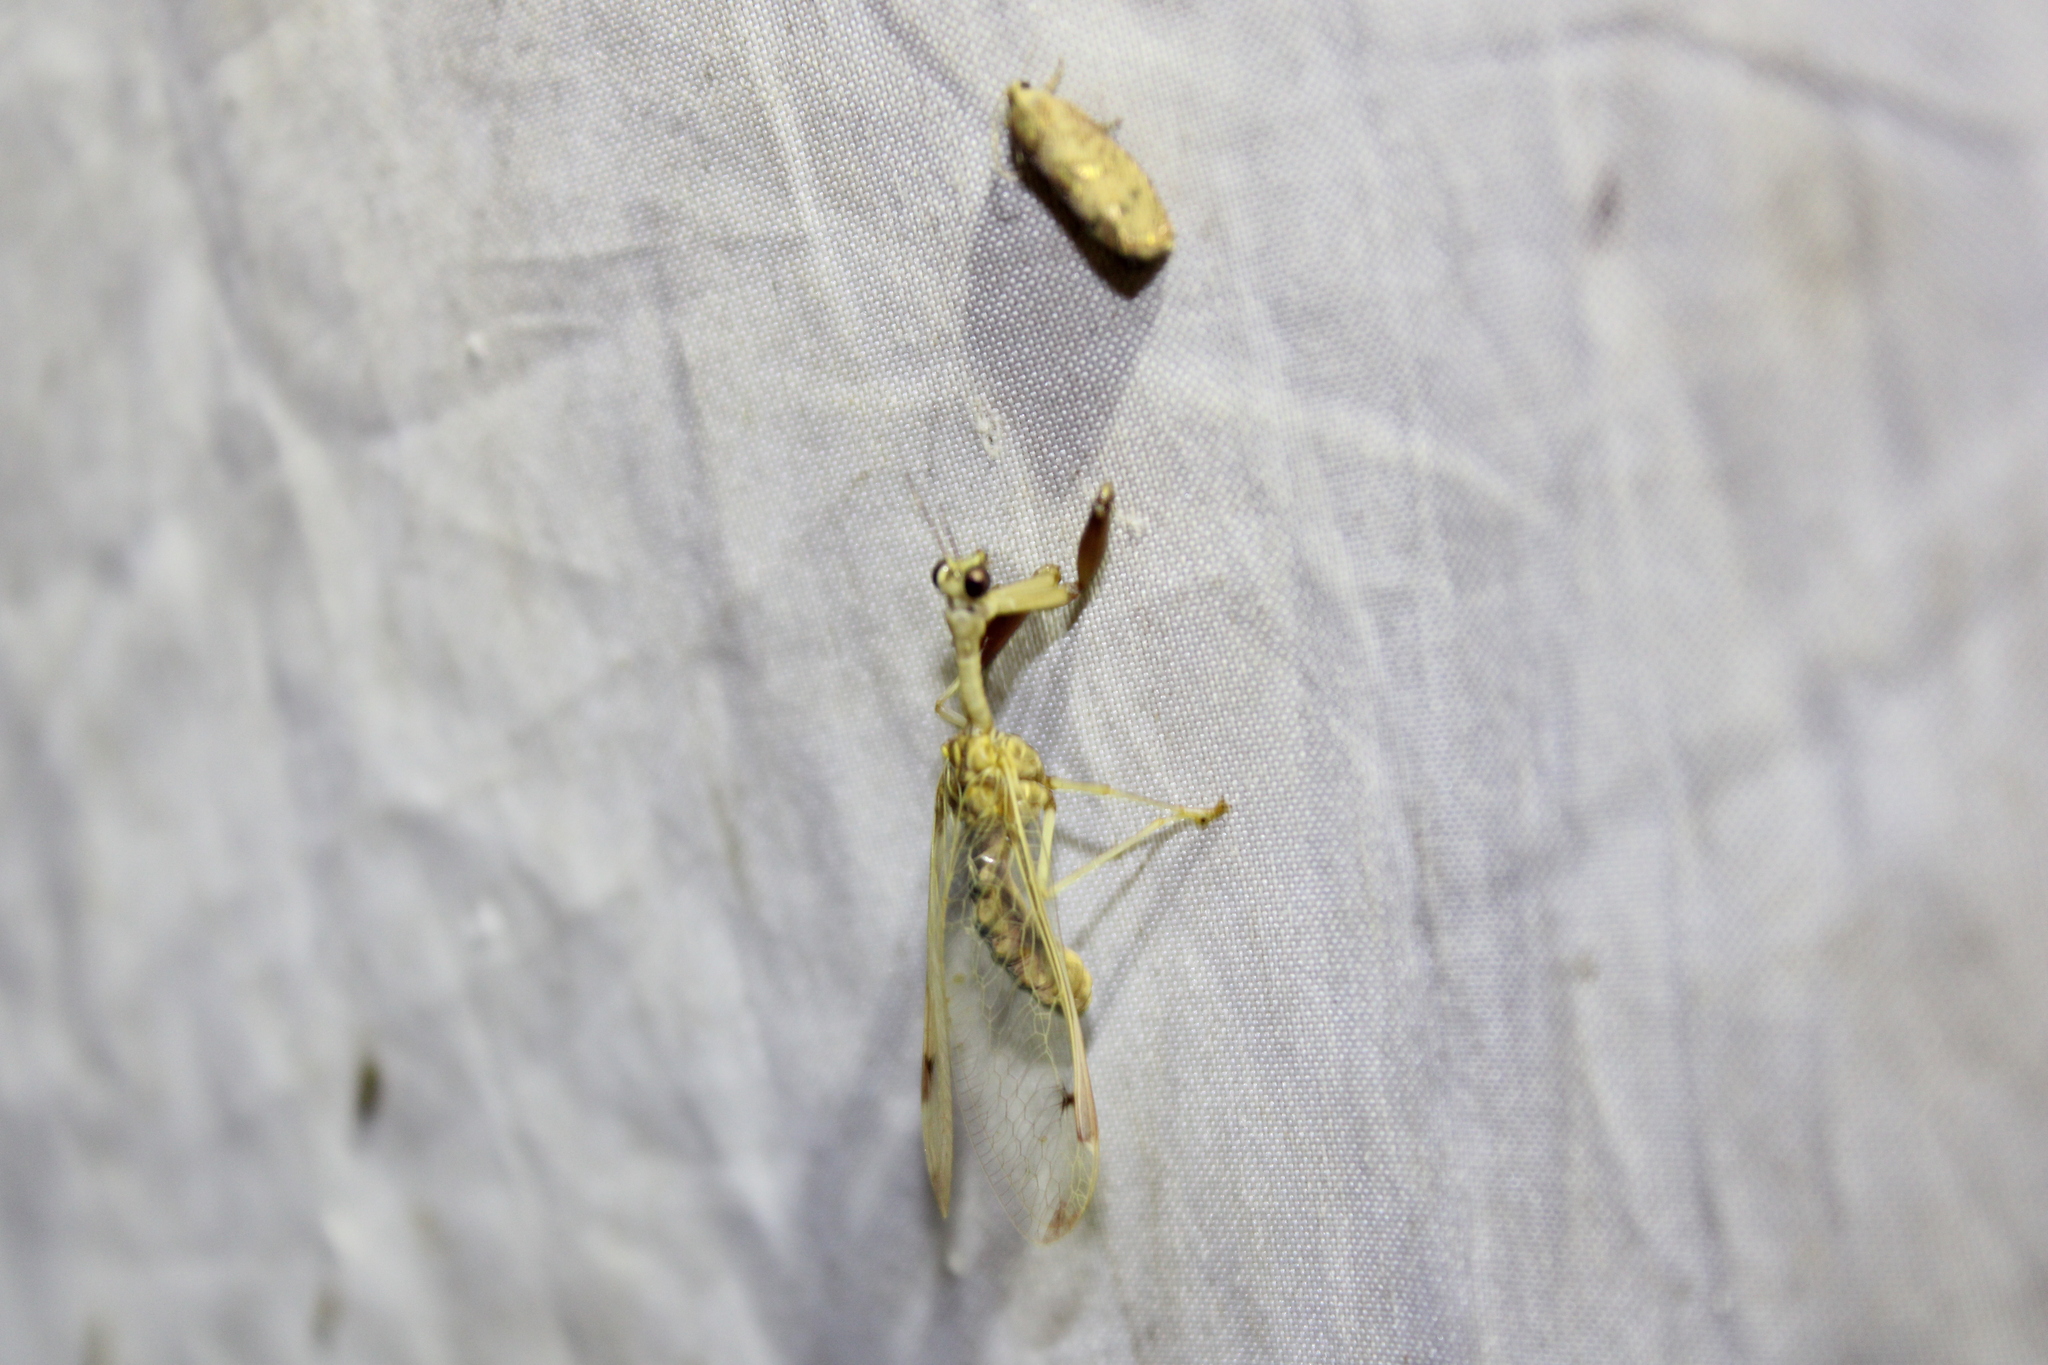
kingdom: Animalia
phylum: Arthropoda
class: Insecta
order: Neuroptera
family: Mantispidae
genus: Dicromantispa
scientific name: Dicromantispa interrupta
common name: Four-spotted mantidfly
